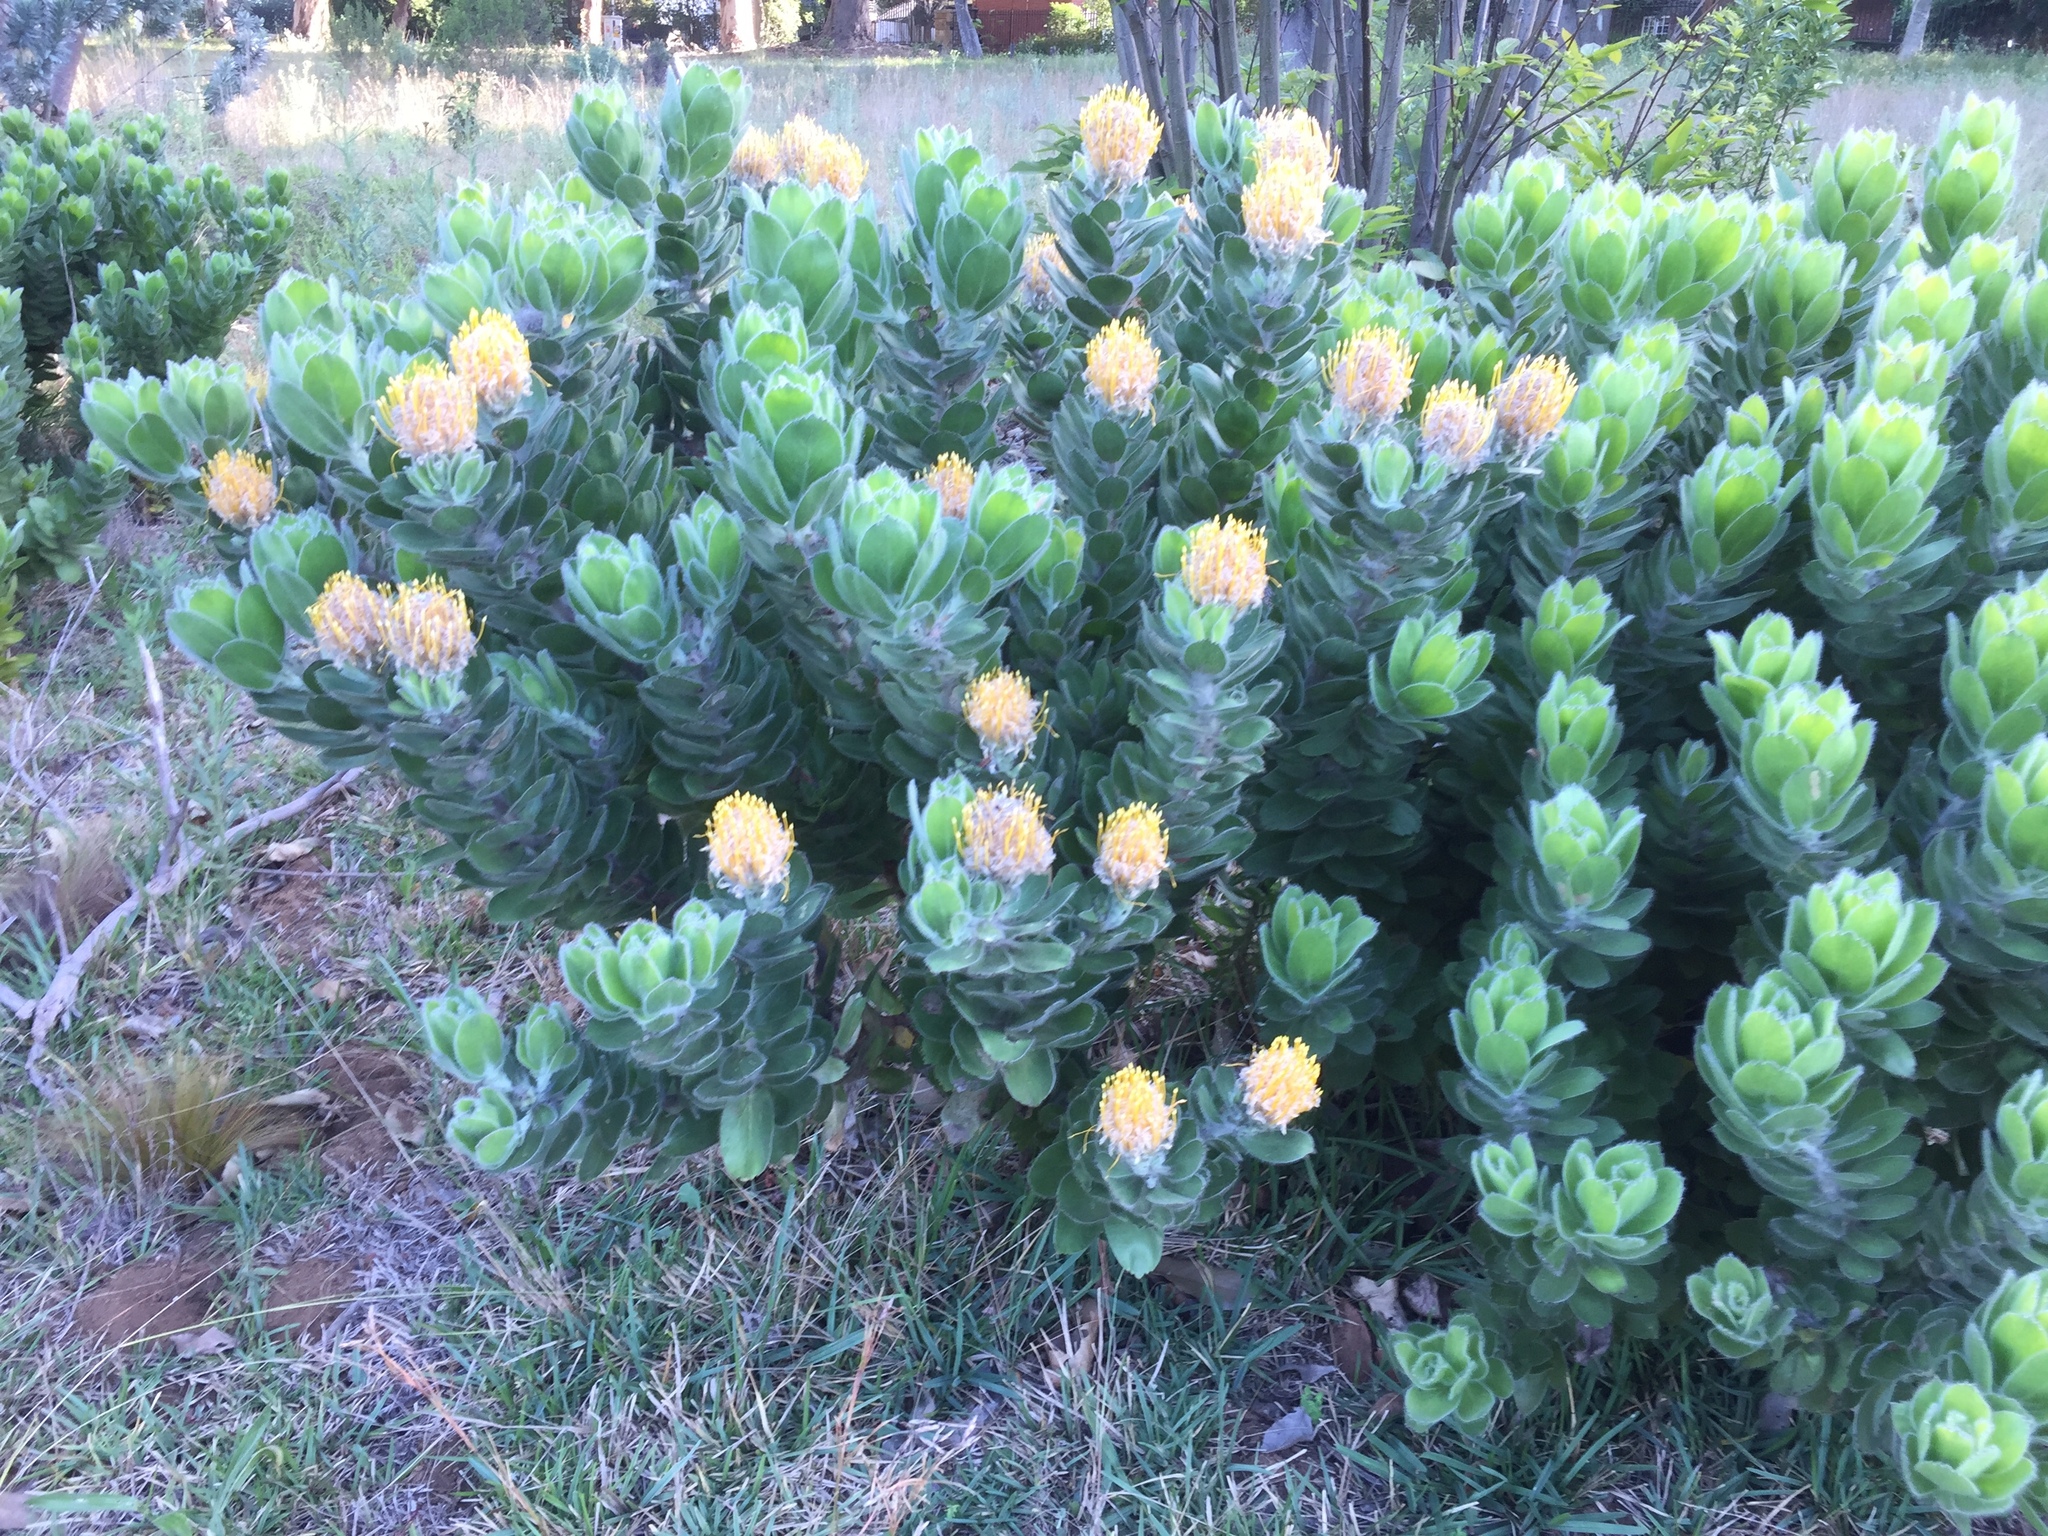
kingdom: Plantae
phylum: Tracheophyta
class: Magnoliopsida
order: Proteales
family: Proteaceae
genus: Leucospermum
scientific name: Leucospermum conocarpodendron
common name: Tree pincushion
